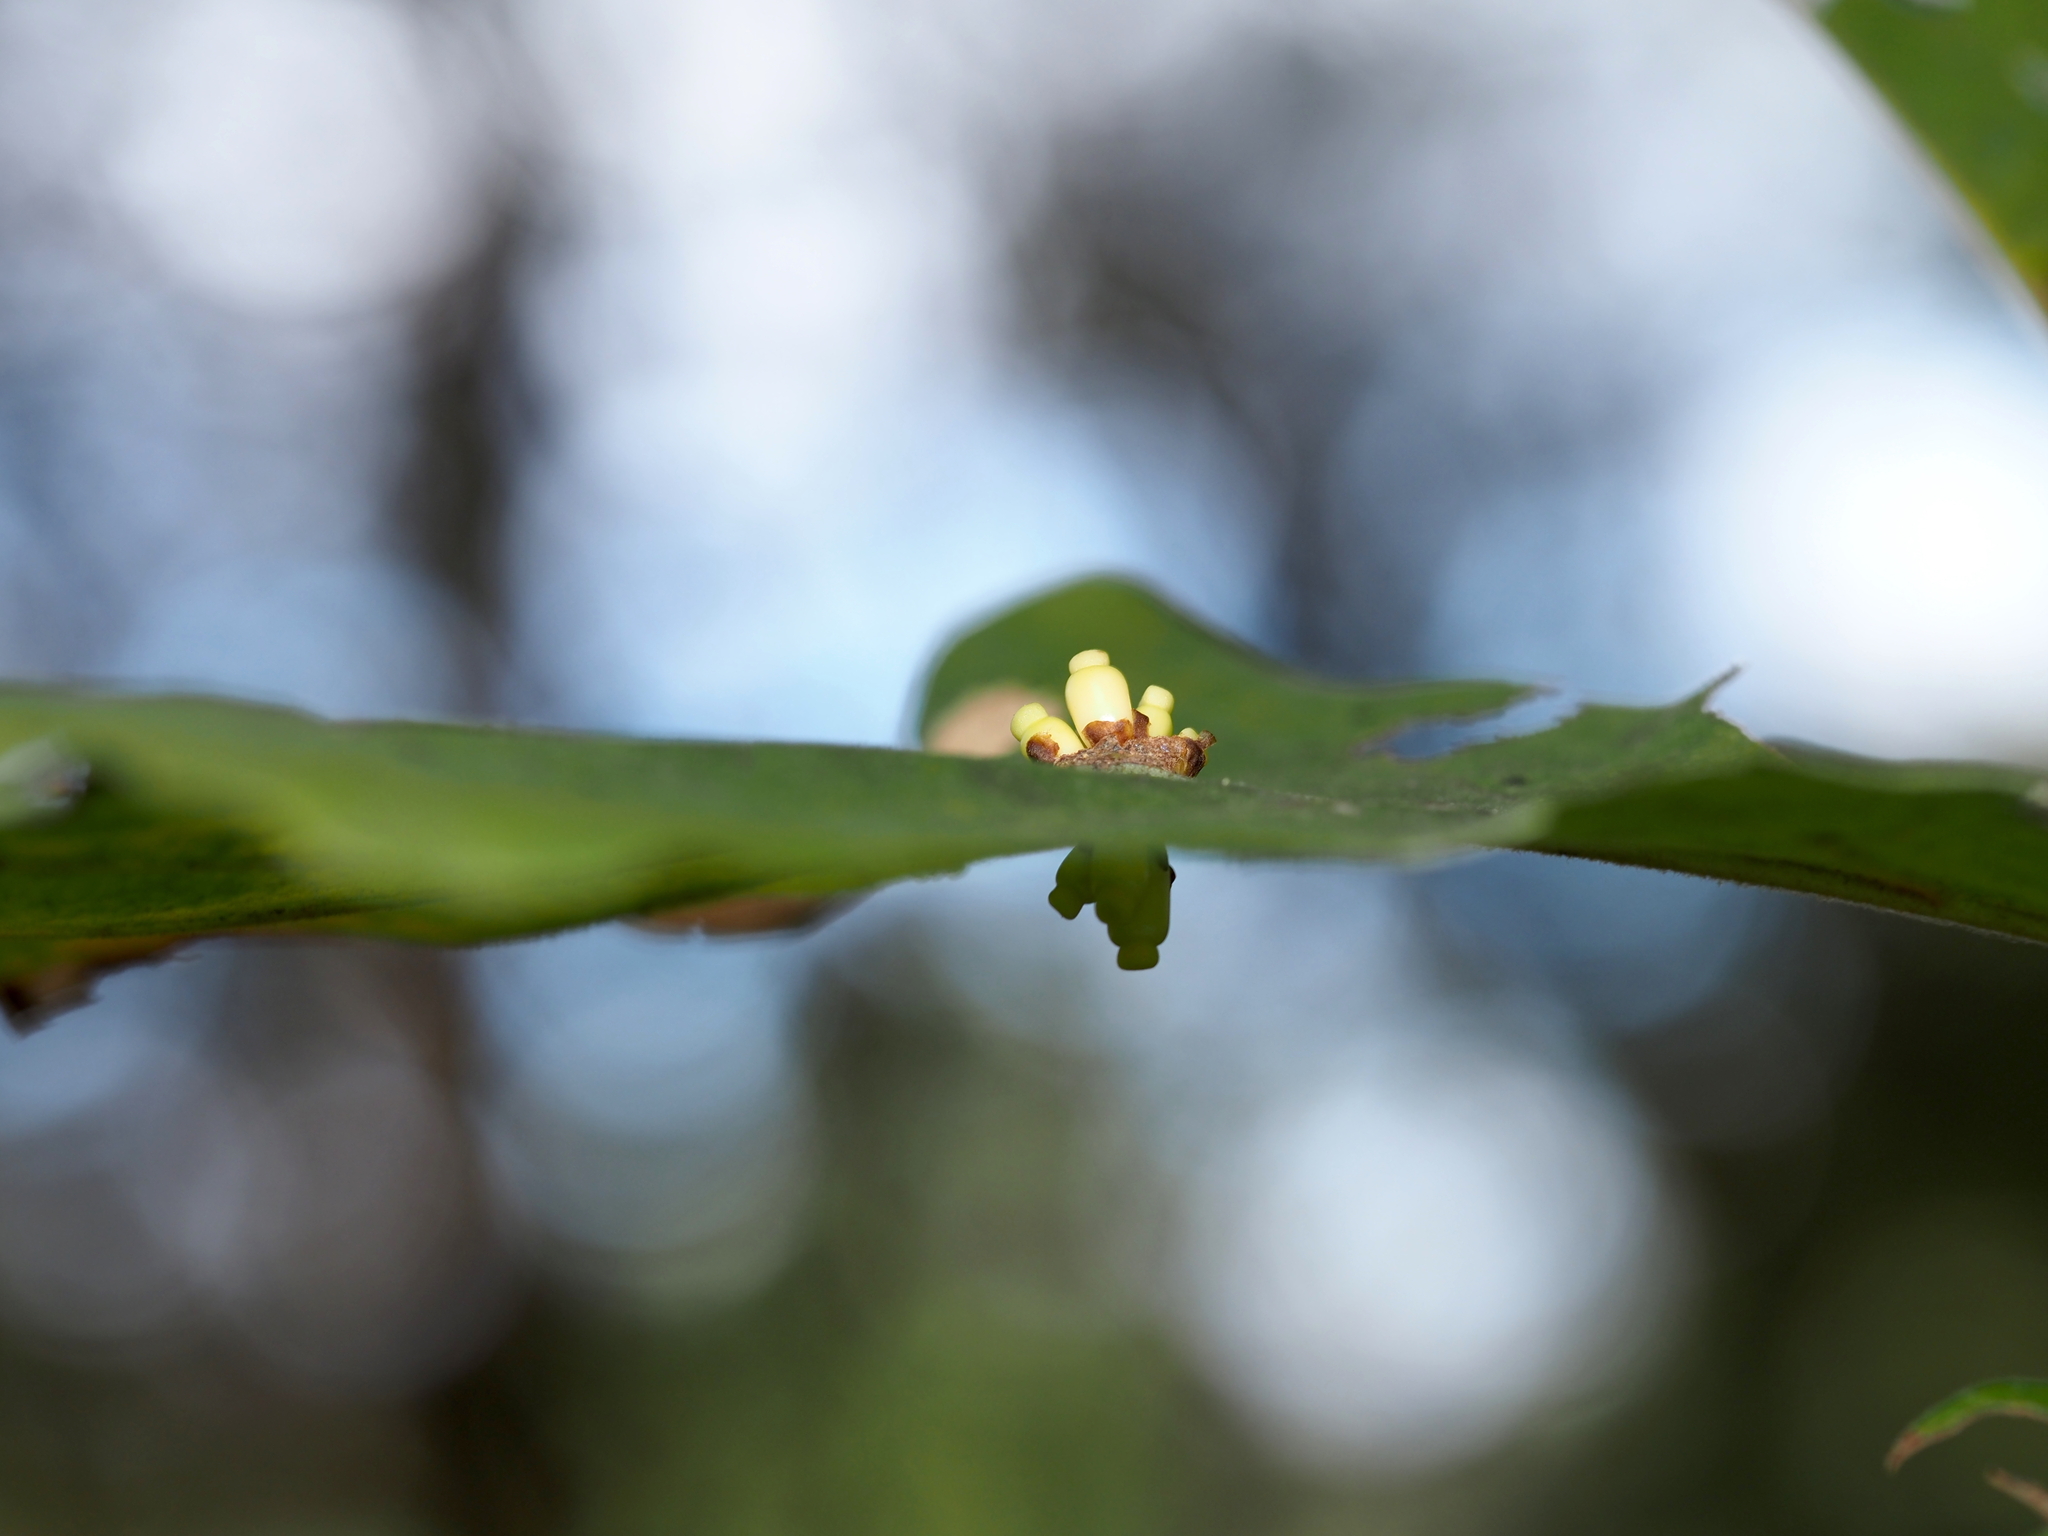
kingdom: Animalia
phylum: Arthropoda
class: Insecta
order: Hymenoptera
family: Cynipidae
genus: Kokkocynips
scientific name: Kokkocynips decidua
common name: Oak wheat gall
